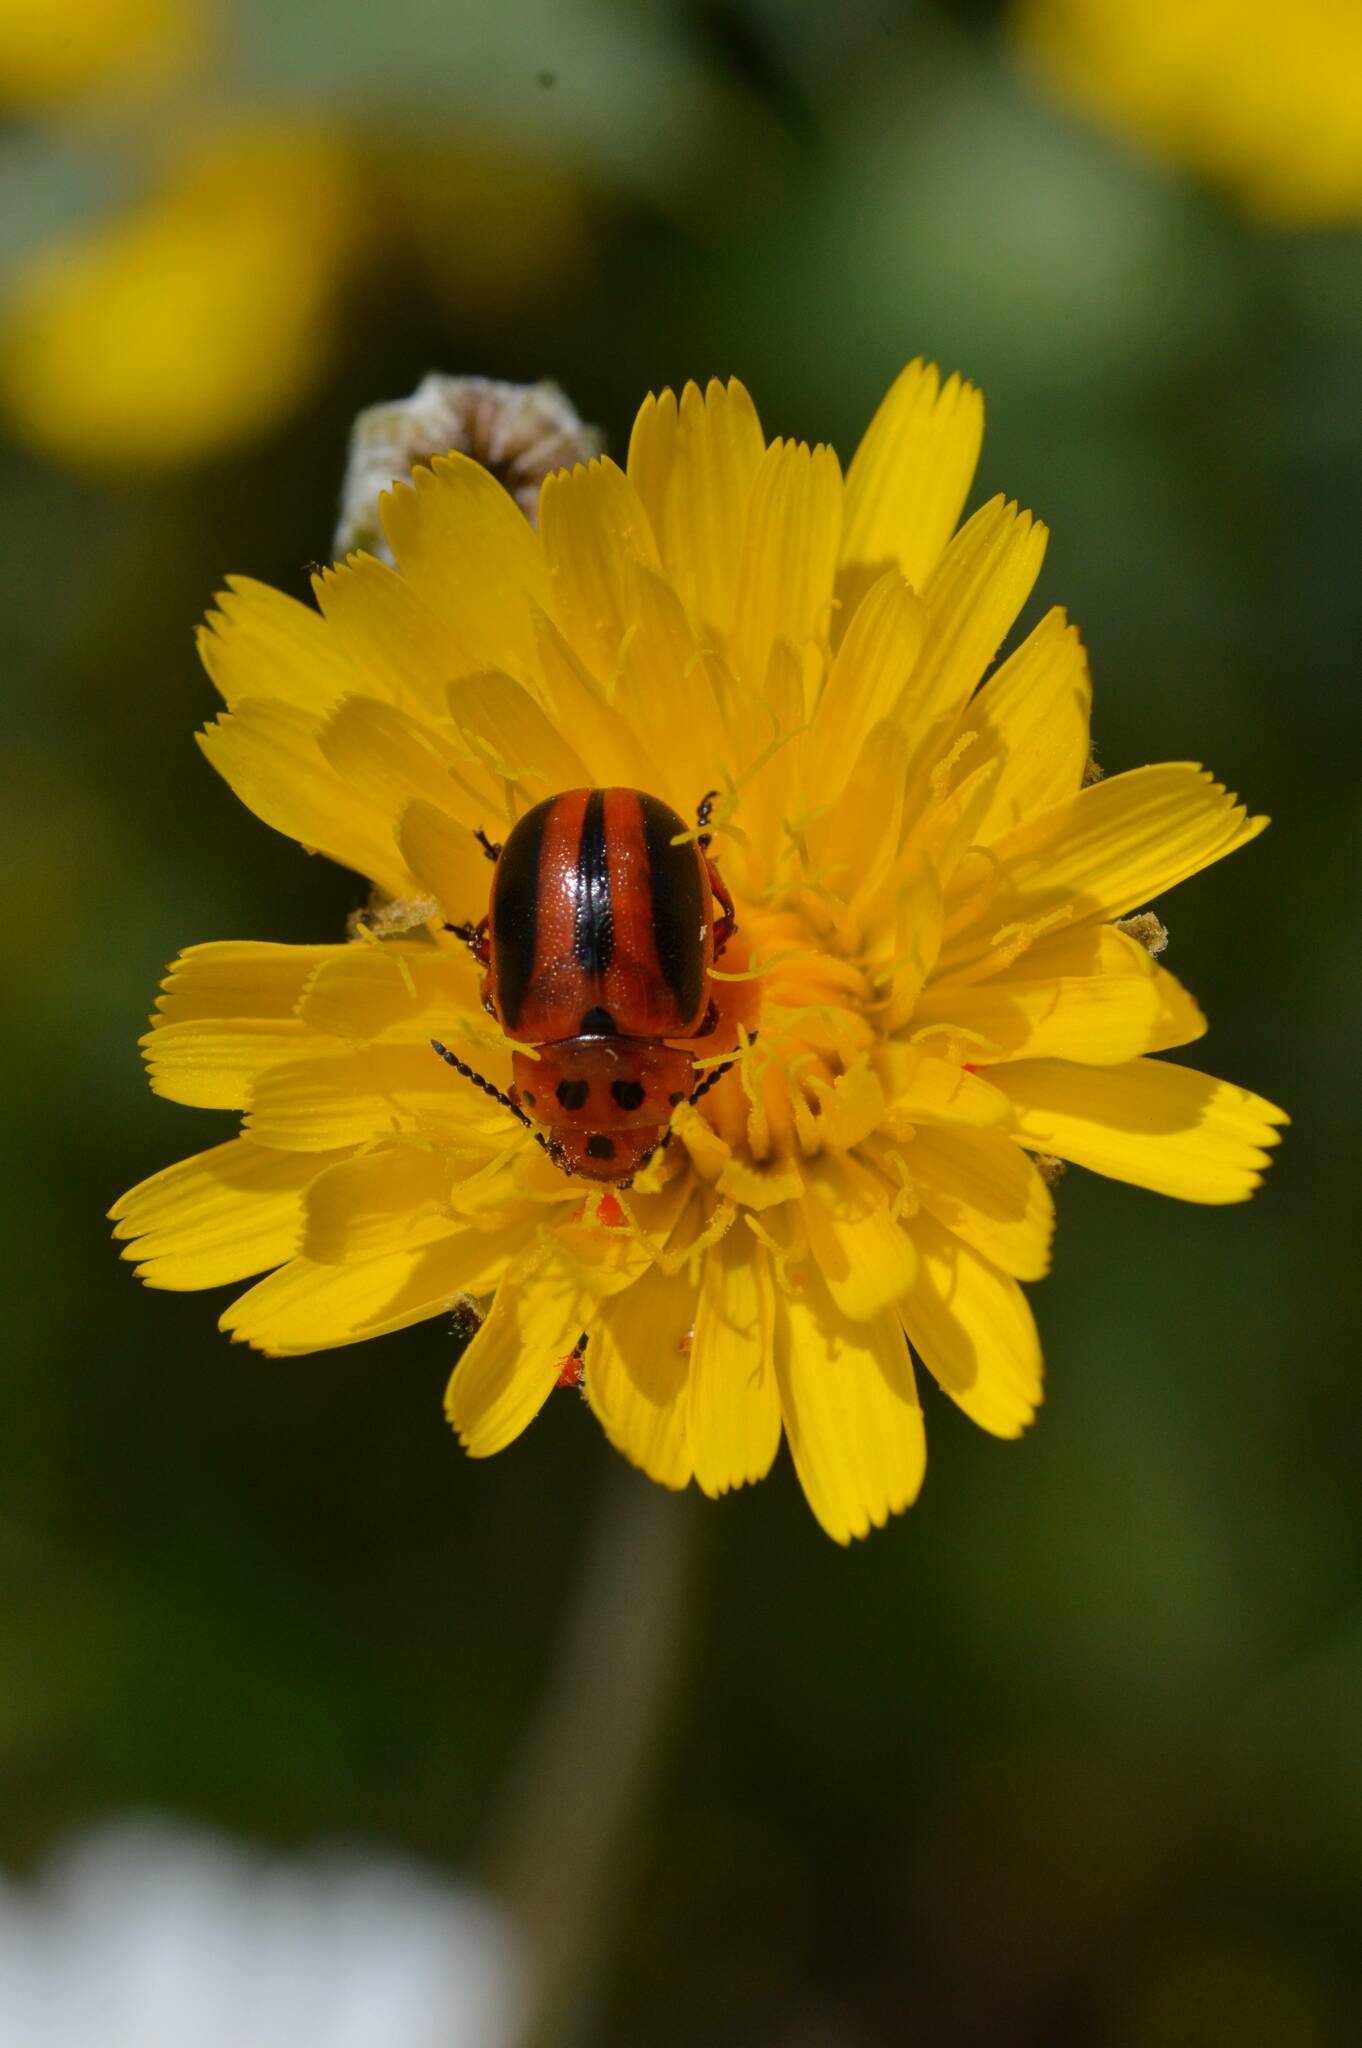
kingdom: Animalia
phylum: Arthropoda
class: Insecta
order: Coleoptera
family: Chrysomelidae
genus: Entomoscelis
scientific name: Entomoscelis rumicis
